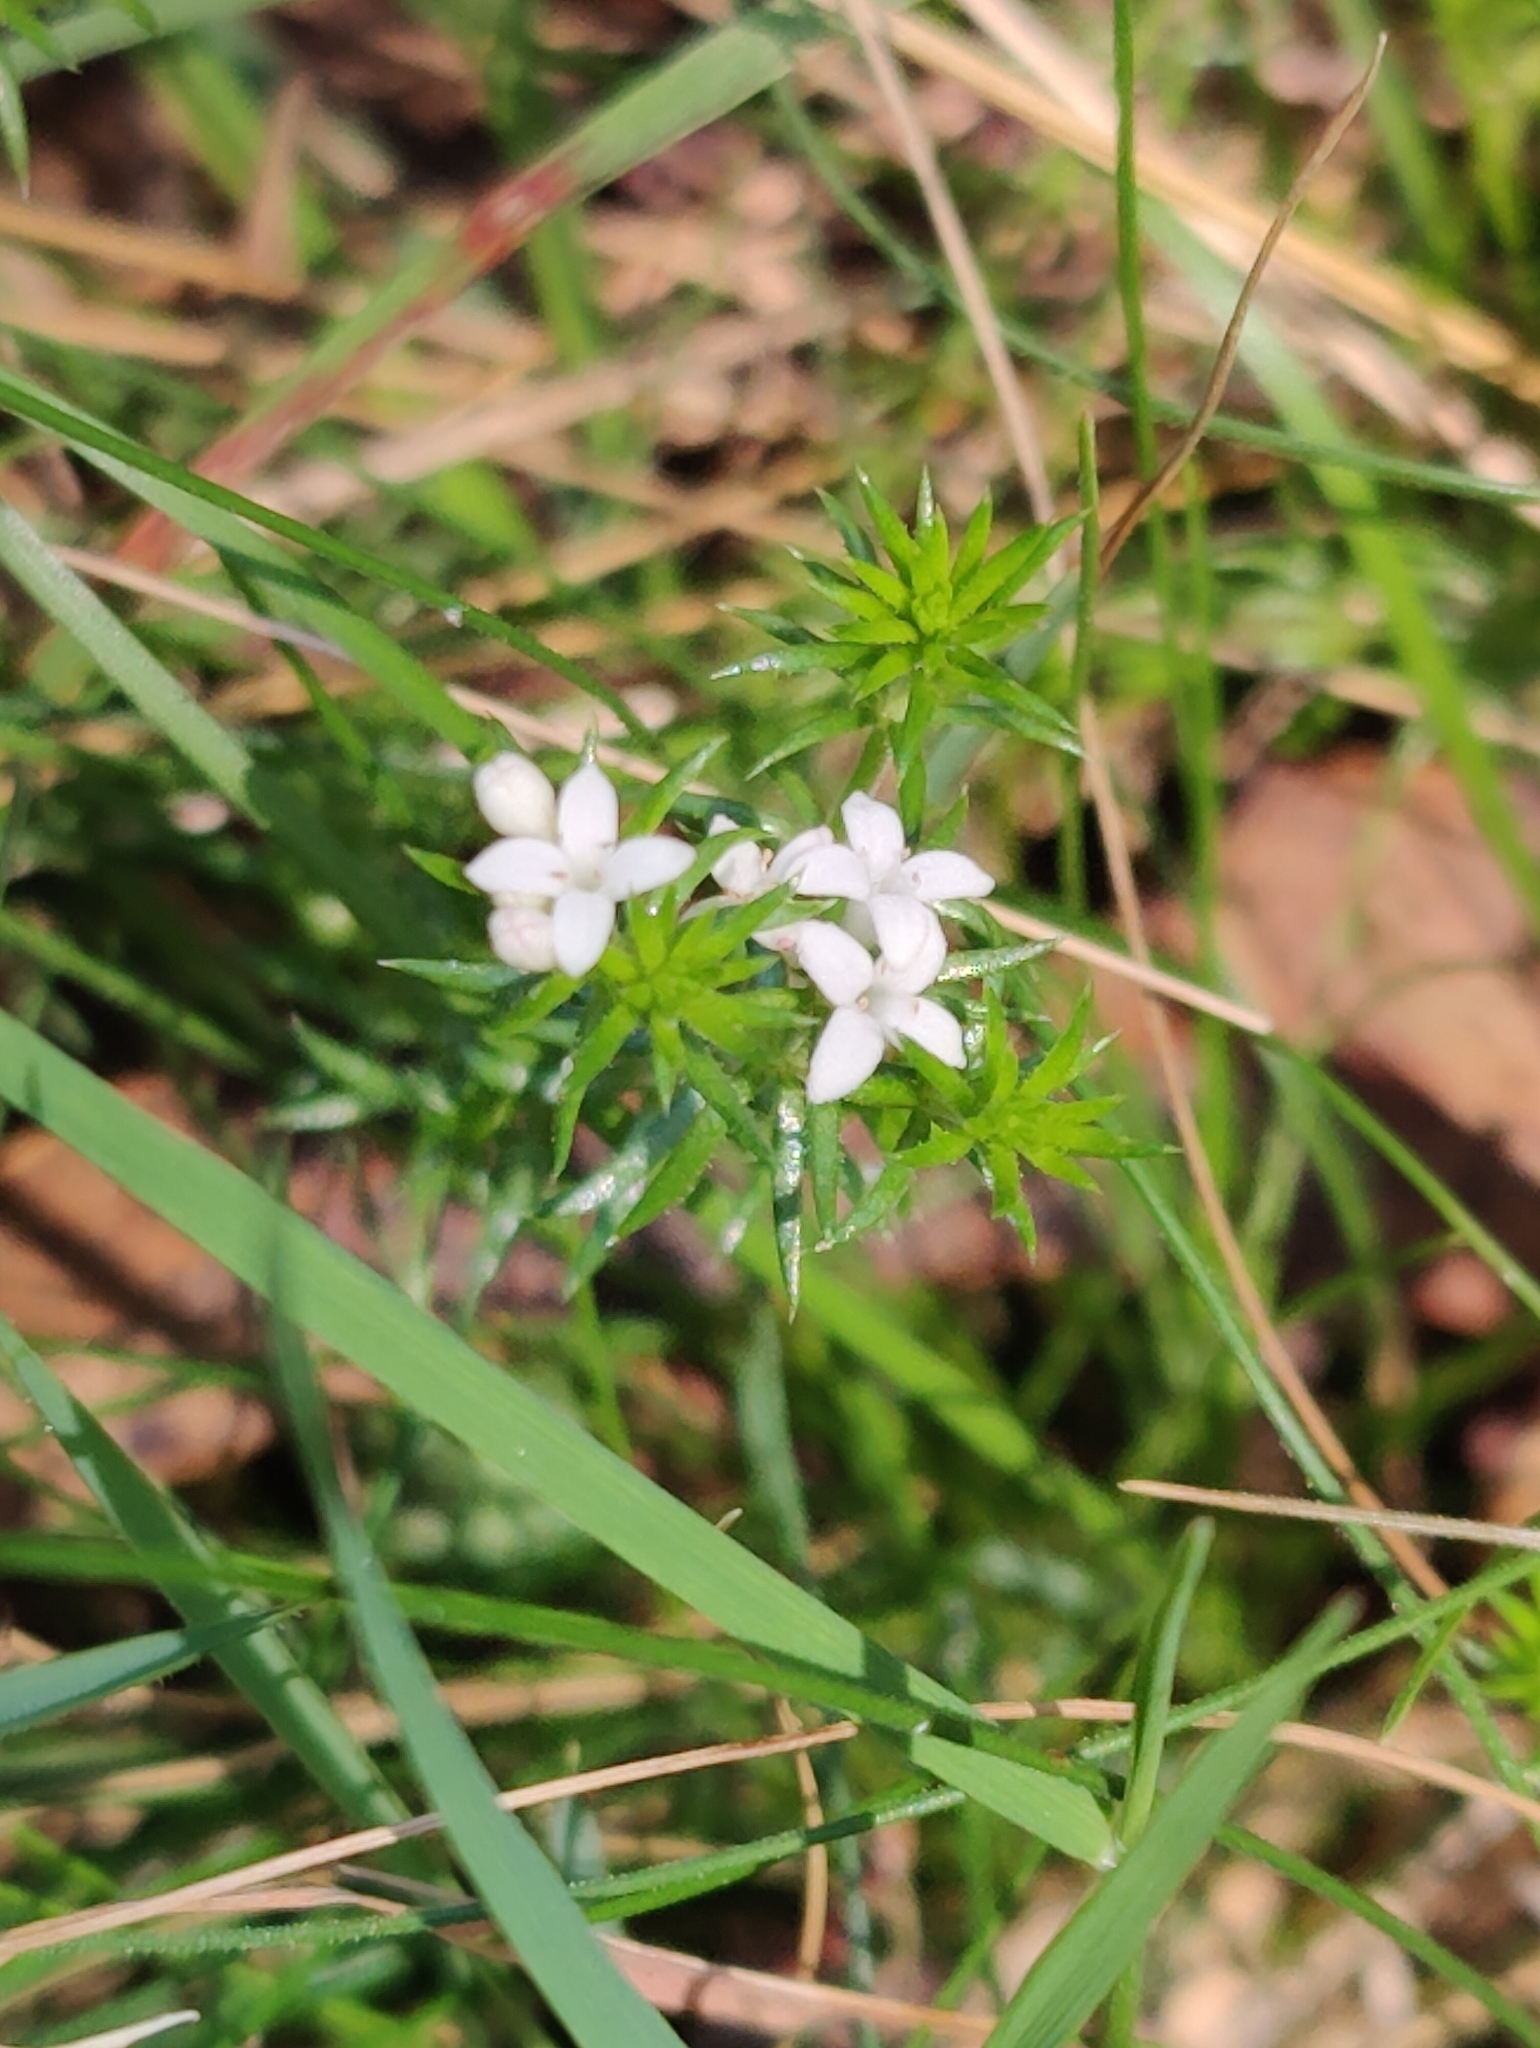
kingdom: Plantae
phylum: Tracheophyta
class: Magnoliopsida
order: Gentianales
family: Rubiaceae
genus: Asperula
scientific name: Asperula scoparia
